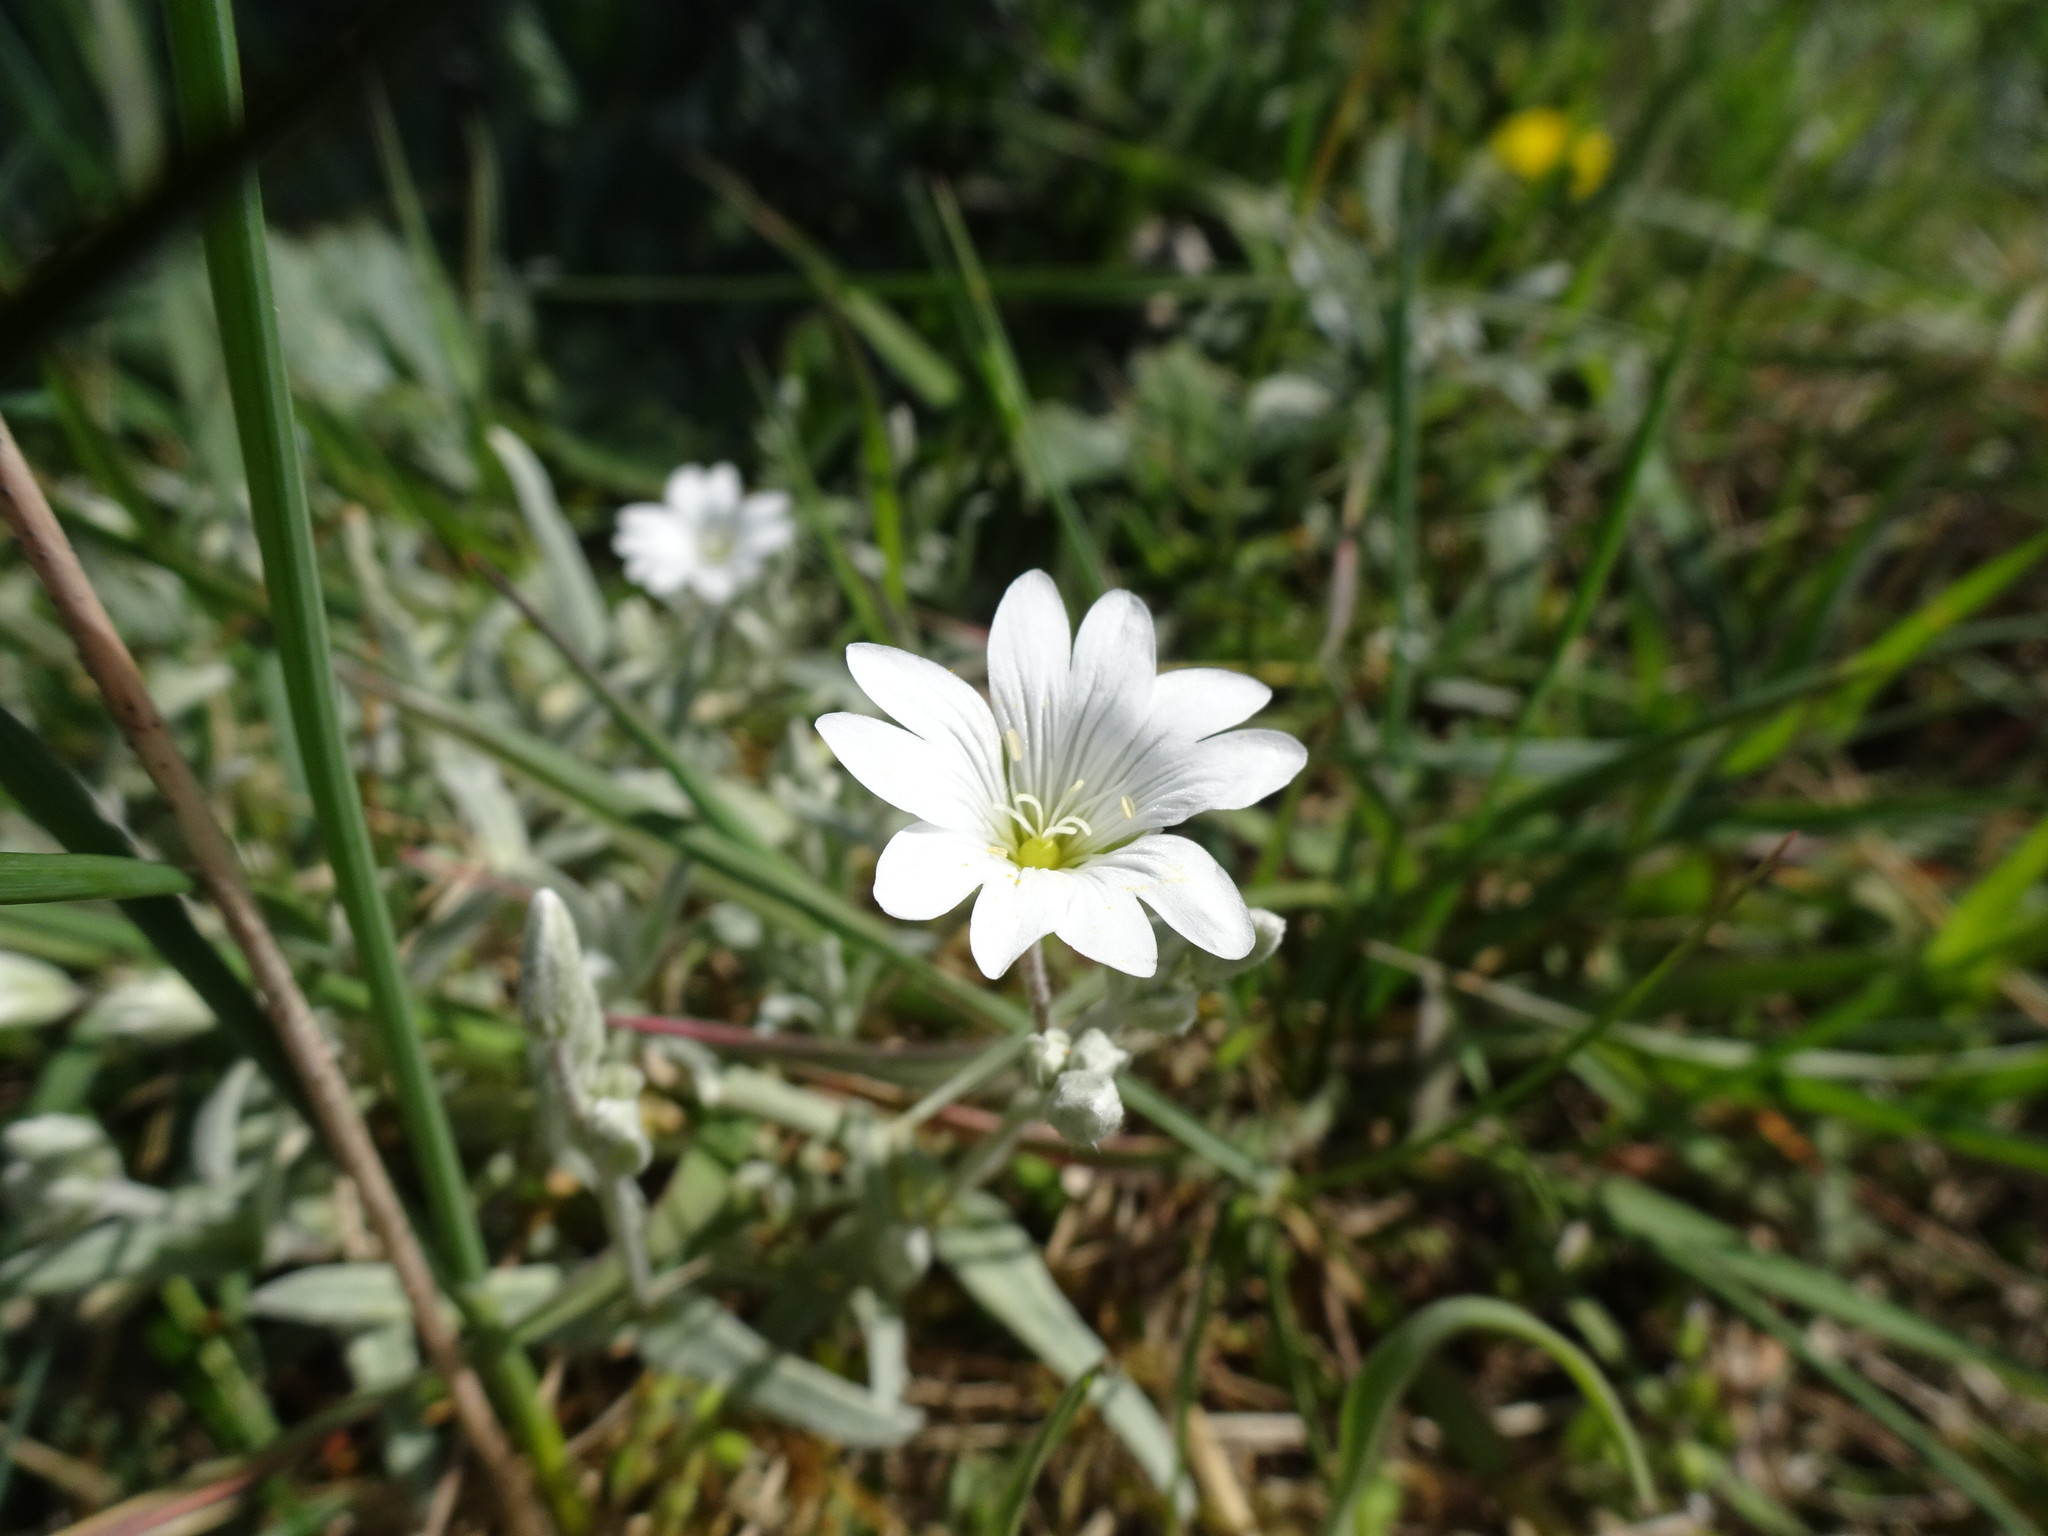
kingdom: Plantae
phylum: Tracheophyta
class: Magnoliopsida
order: Caryophyllales
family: Caryophyllaceae
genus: Cerastium
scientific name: Cerastium tomentosum
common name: Snow-in-summer
